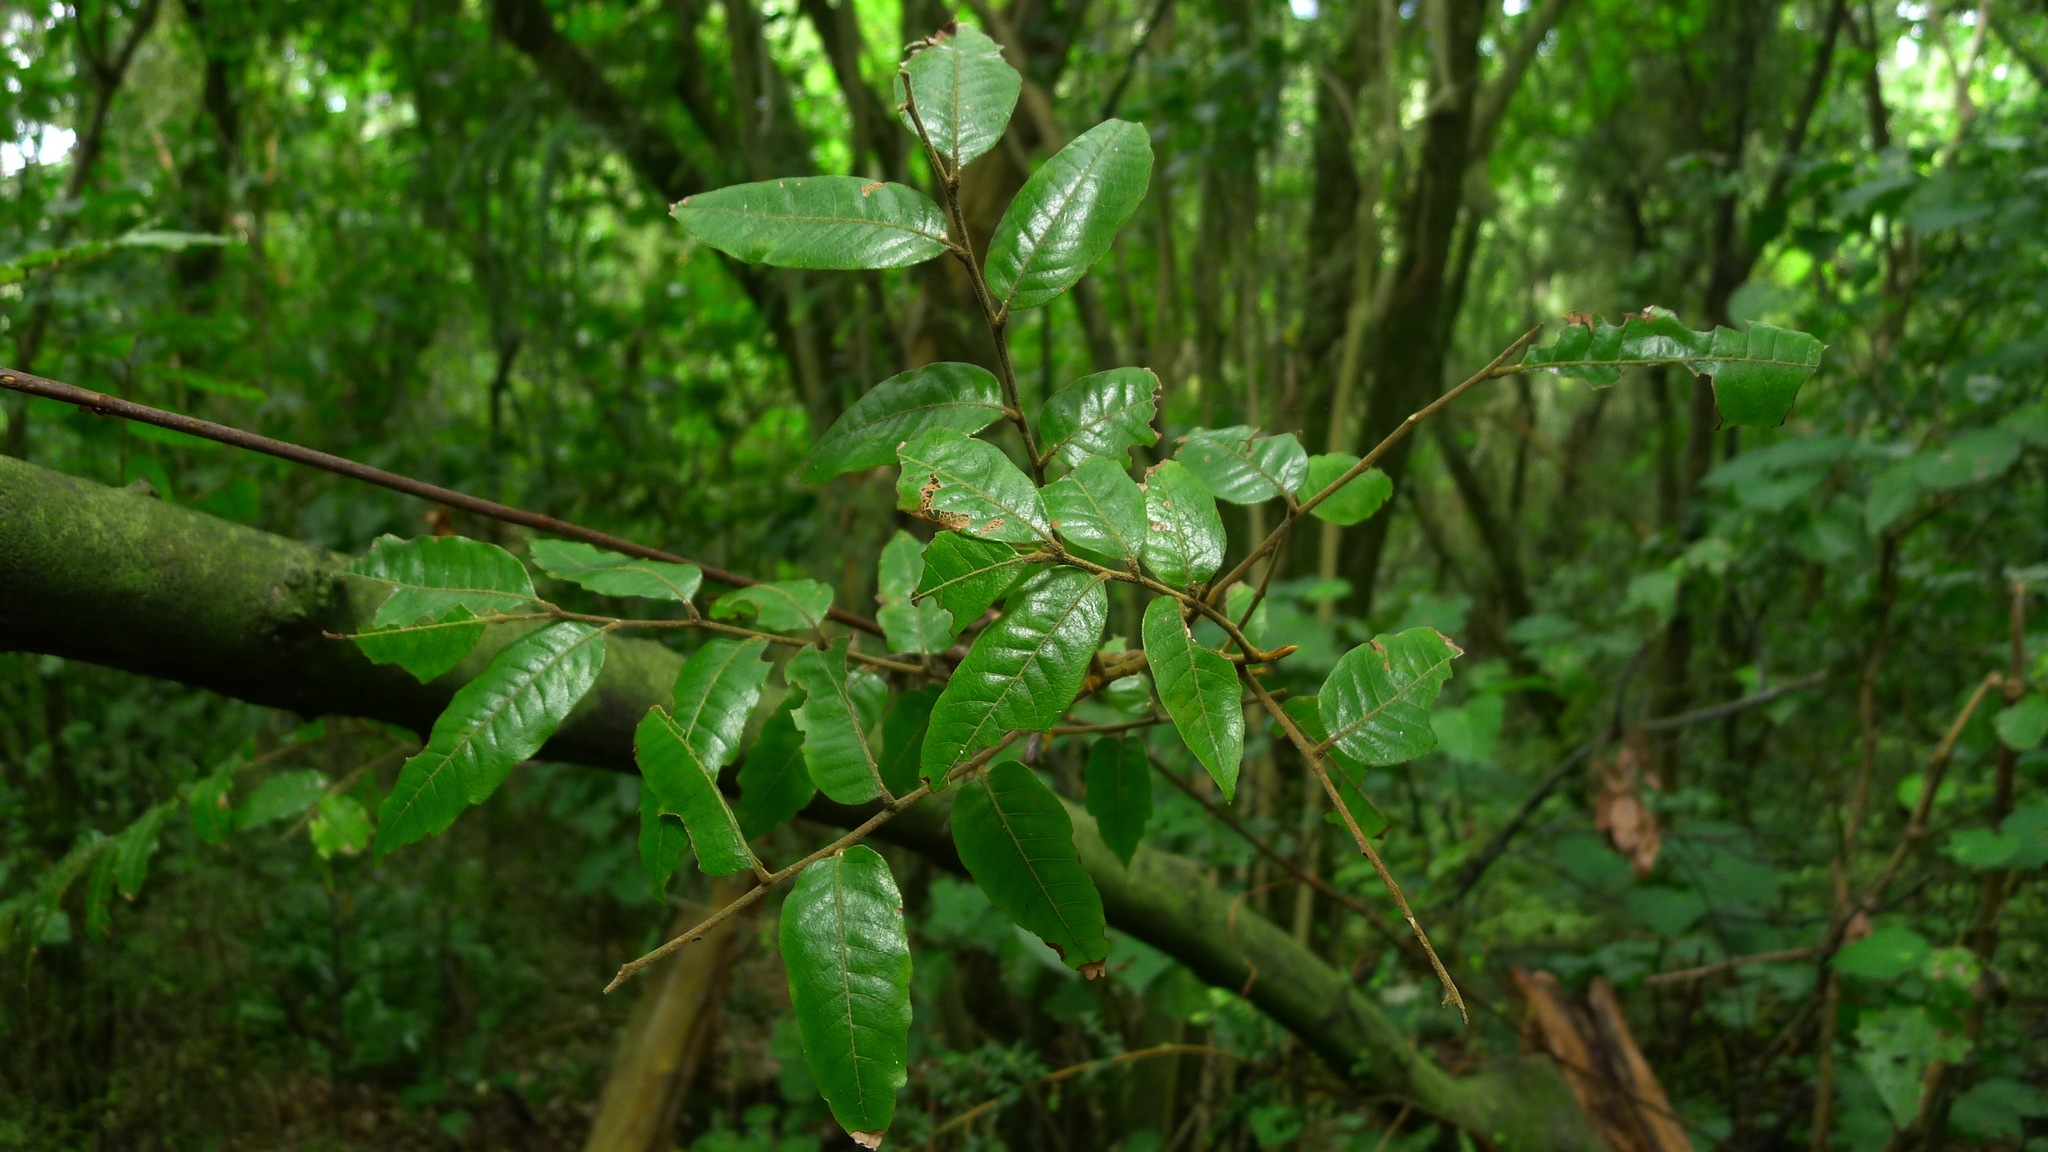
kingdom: Plantae
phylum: Tracheophyta
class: Magnoliopsida
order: Sapindales
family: Sapindaceae
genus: Alectryon
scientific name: Alectryon excelsus
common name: Three kings titoki
